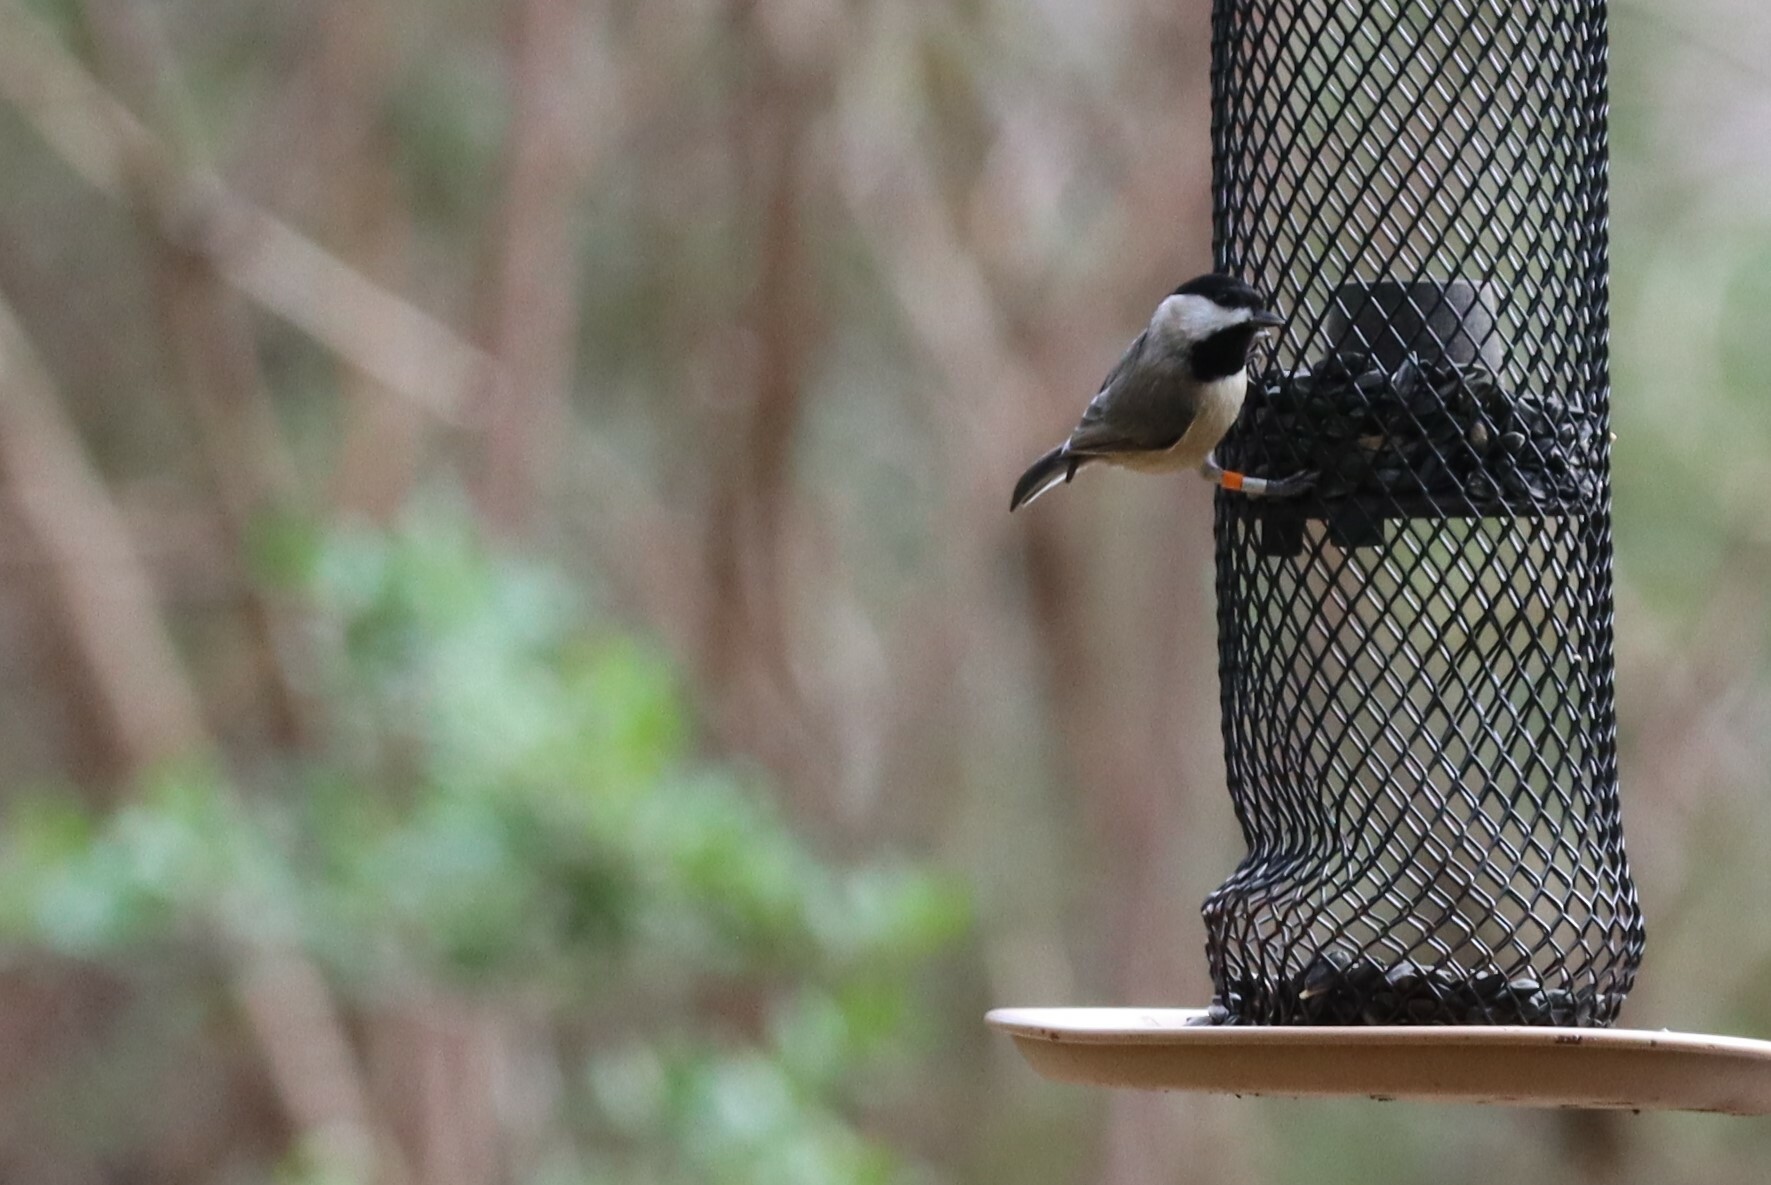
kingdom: Animalia
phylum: Chordata
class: Aves
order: Passeriformes
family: Paridae
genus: Poecile
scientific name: Poecile carolinensis
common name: Carolina chickadee
